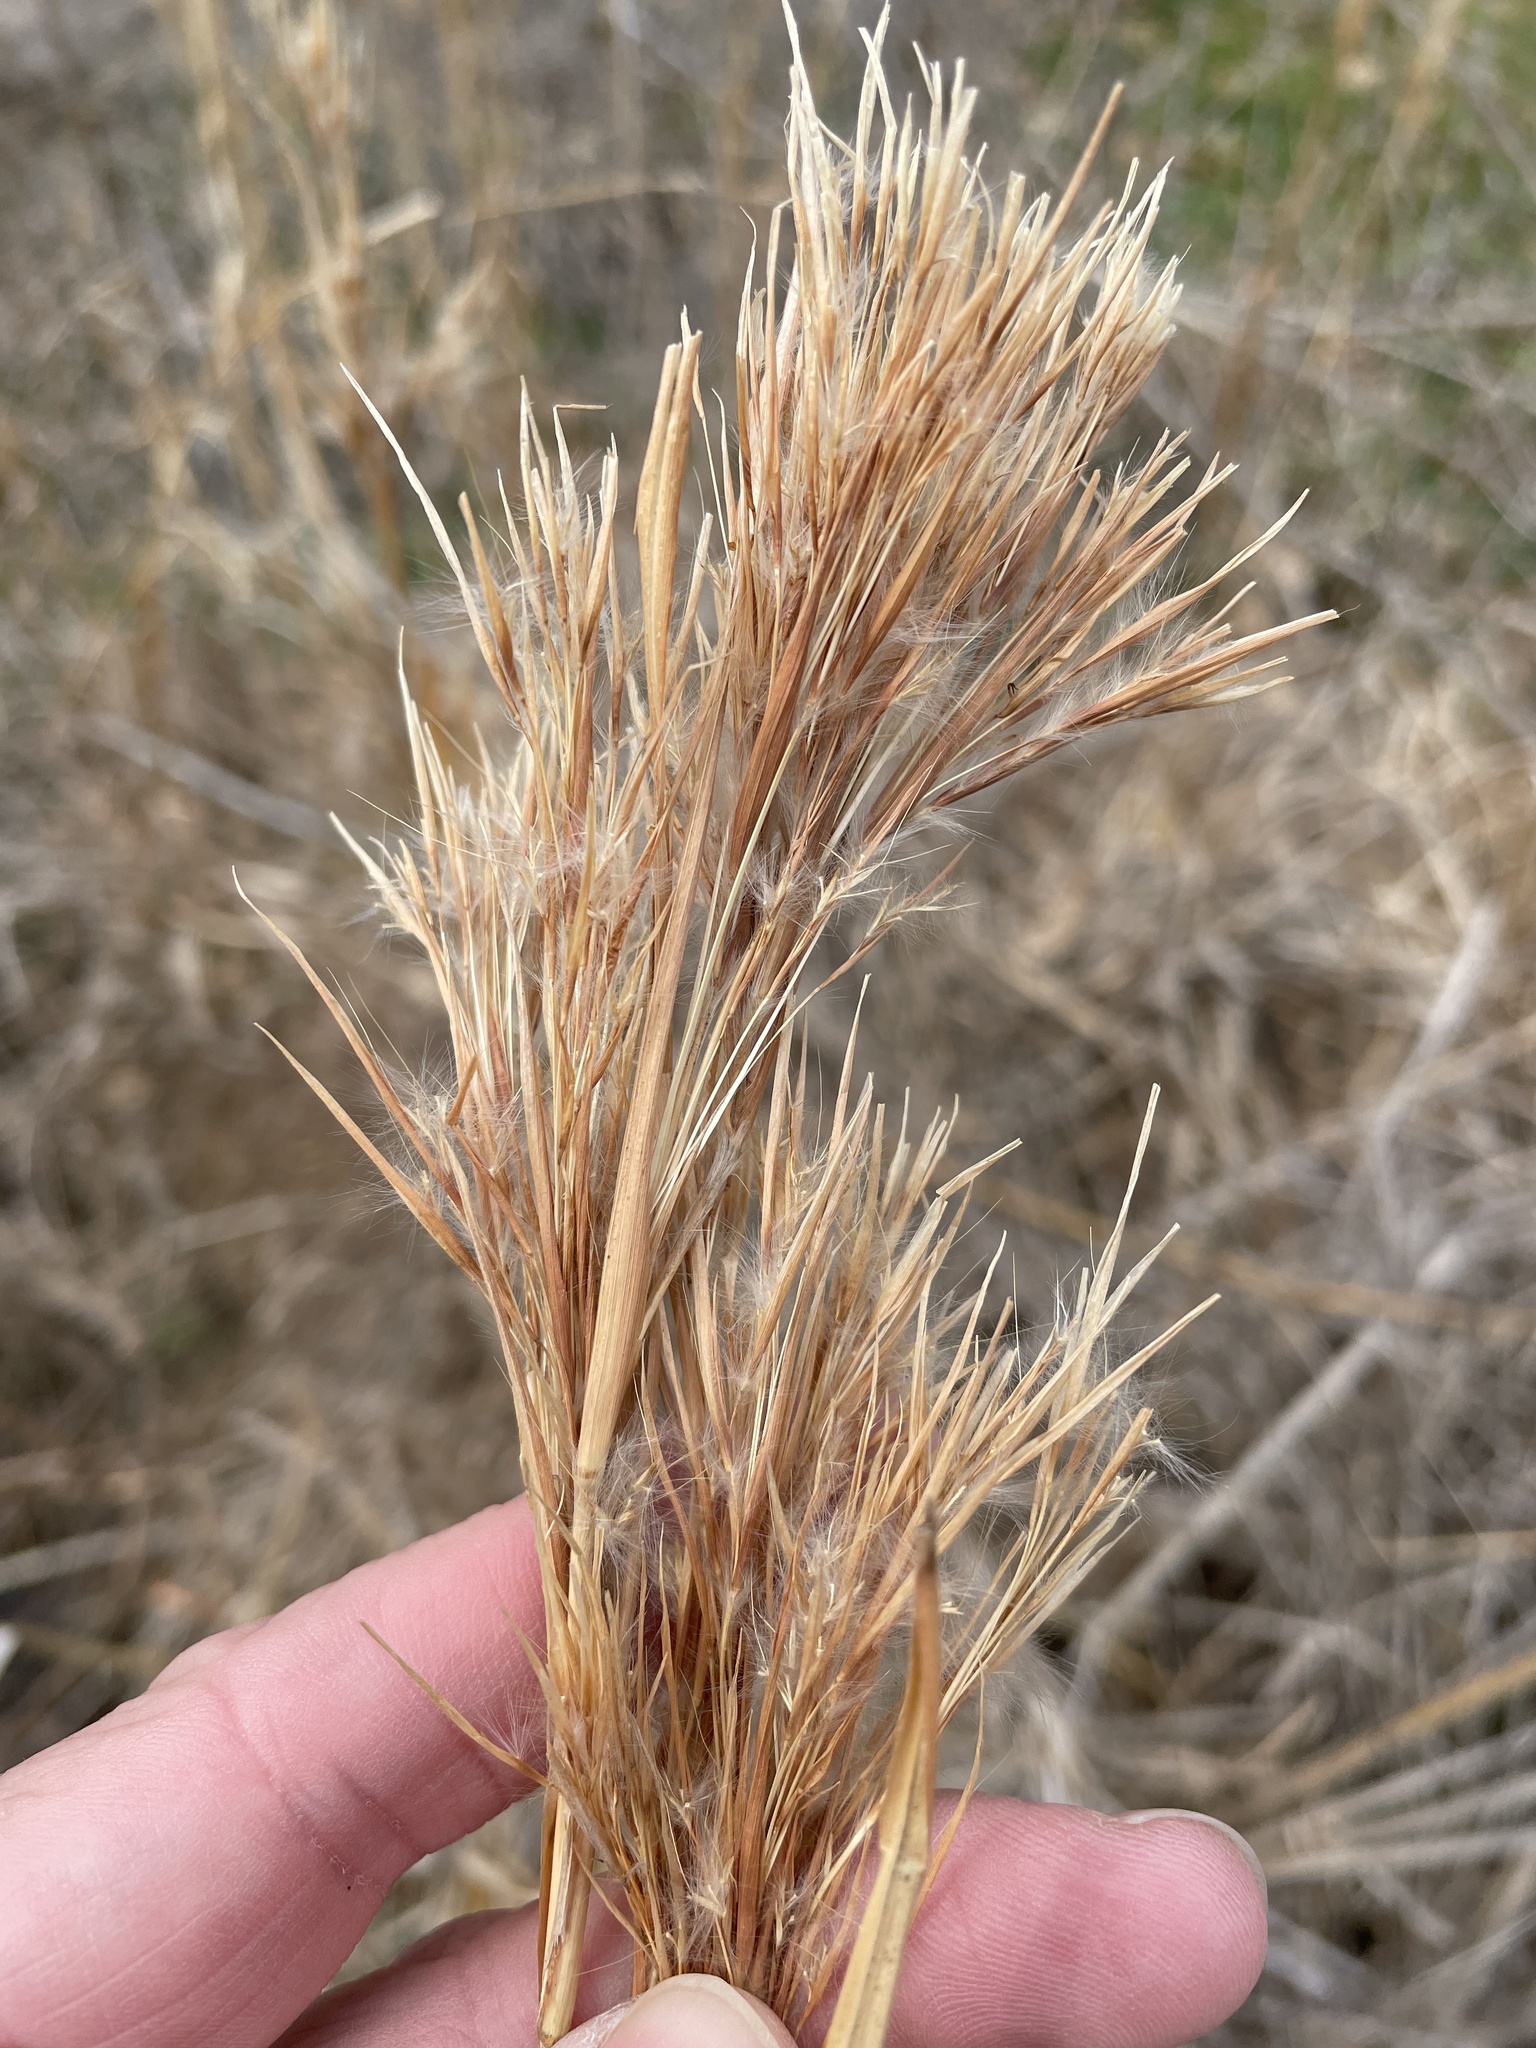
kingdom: Plantae
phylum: Tracheophyta
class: Liliopsida
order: Poales
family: Poaceae
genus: Andropogon
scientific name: Andropogon tenuispatheus
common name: Bushy bluestem
